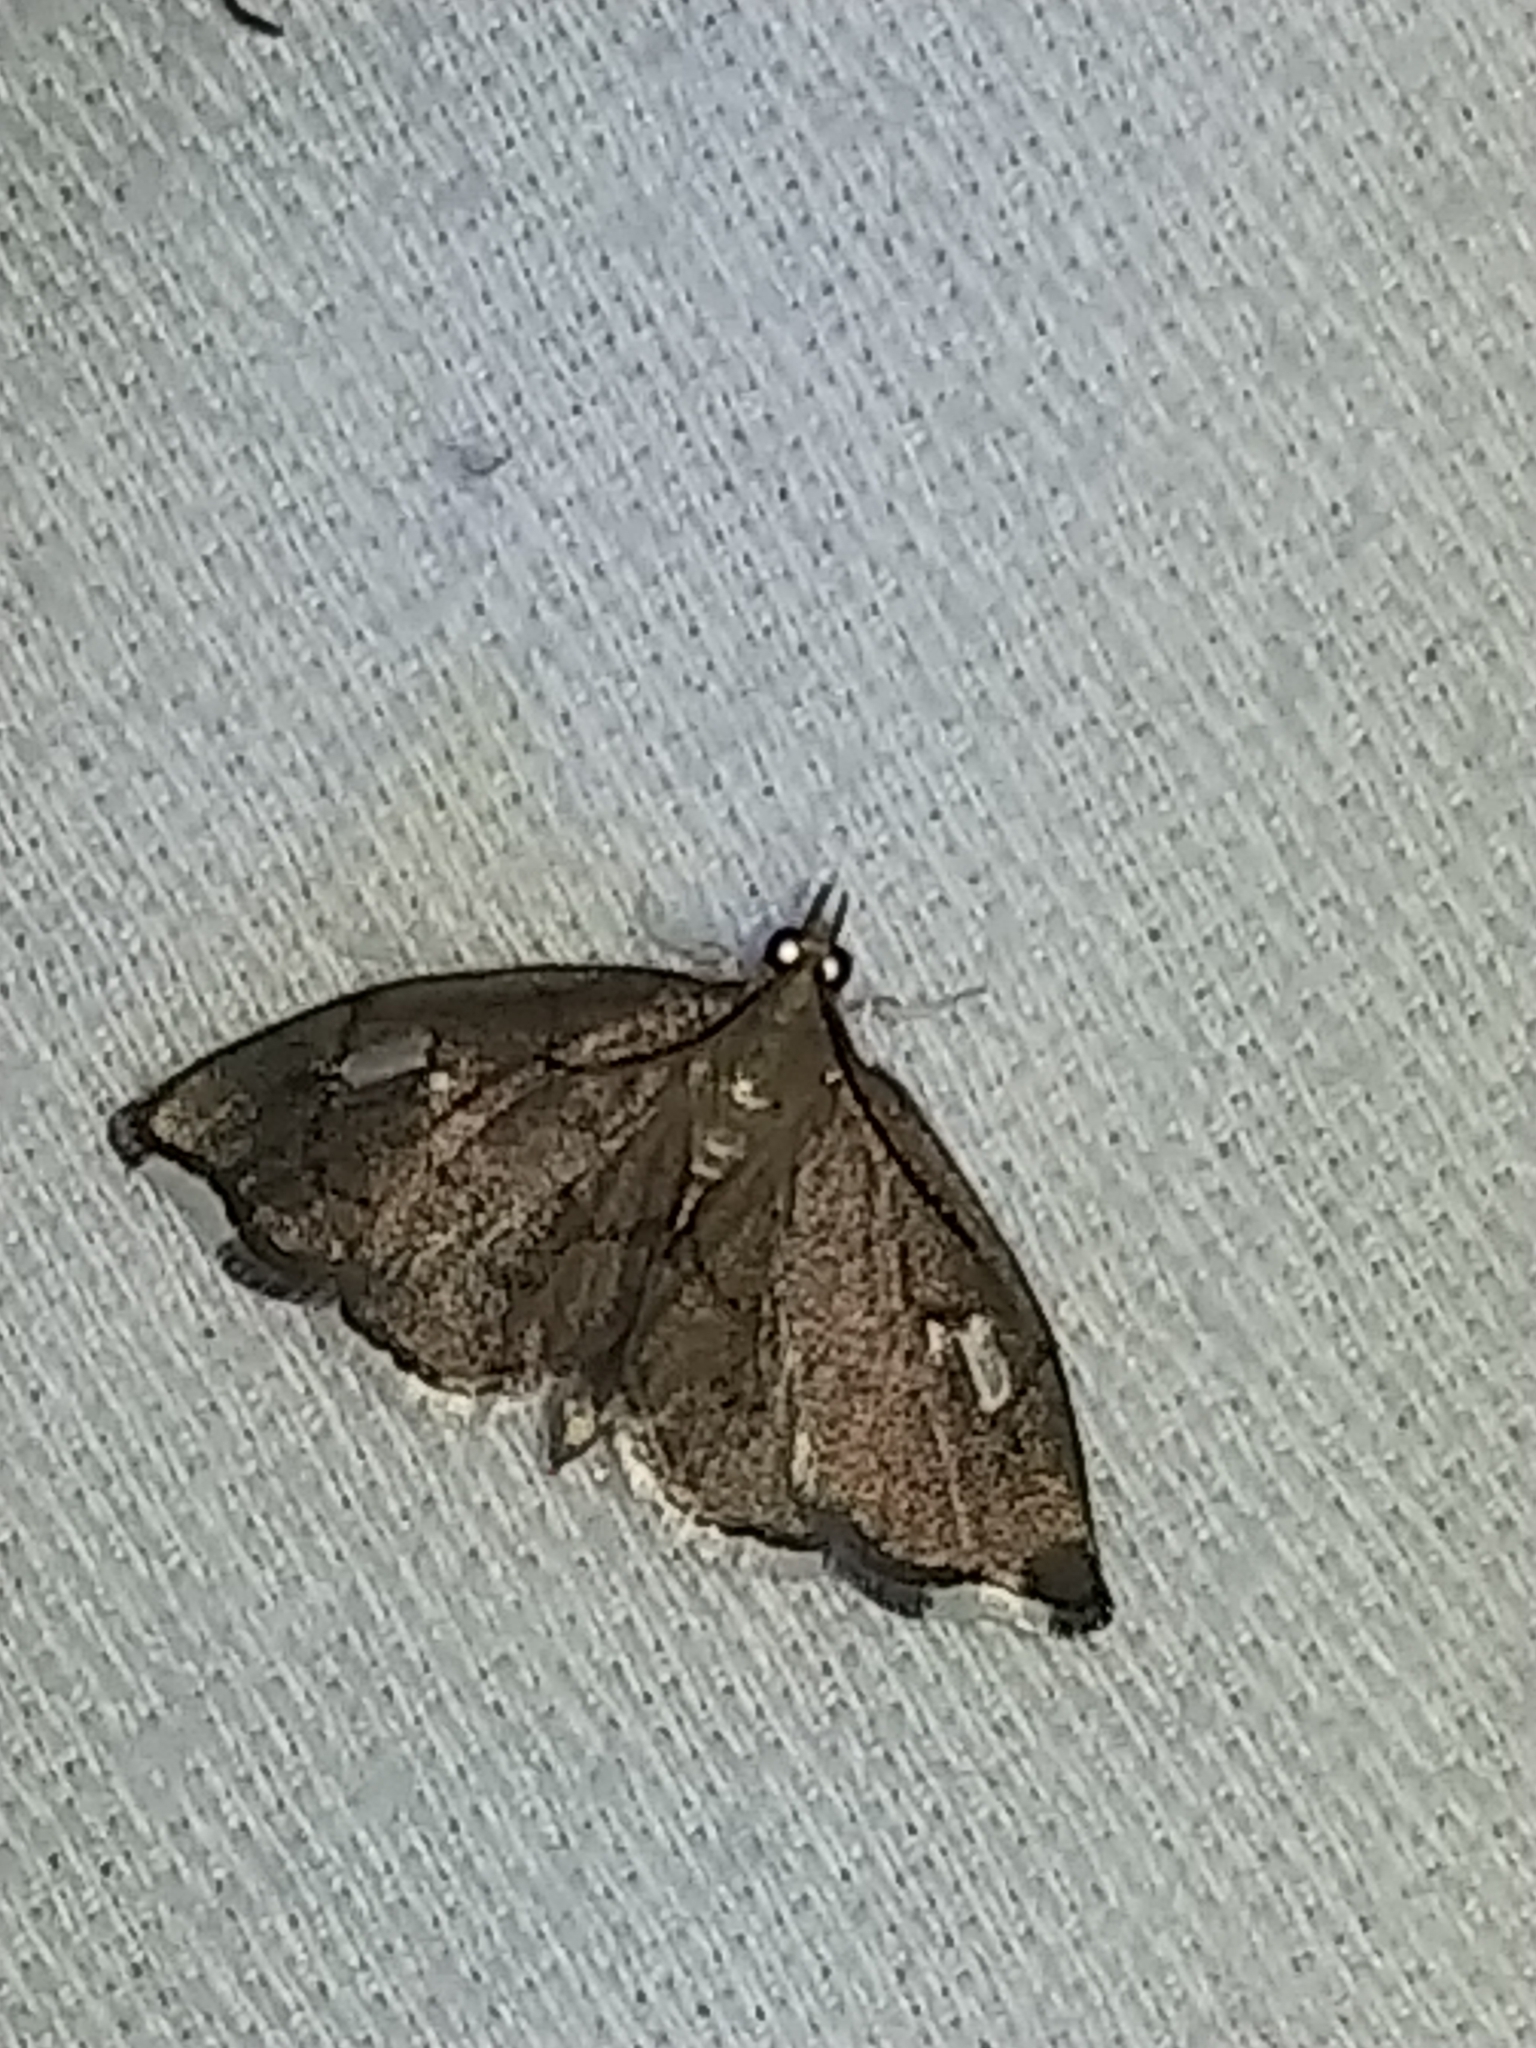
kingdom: Animalia
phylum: Arthropoda
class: Insecta
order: Lepidoptera
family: Crambidae
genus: Perispasta
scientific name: Perispasta caeculalis
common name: Titian peale's moth
